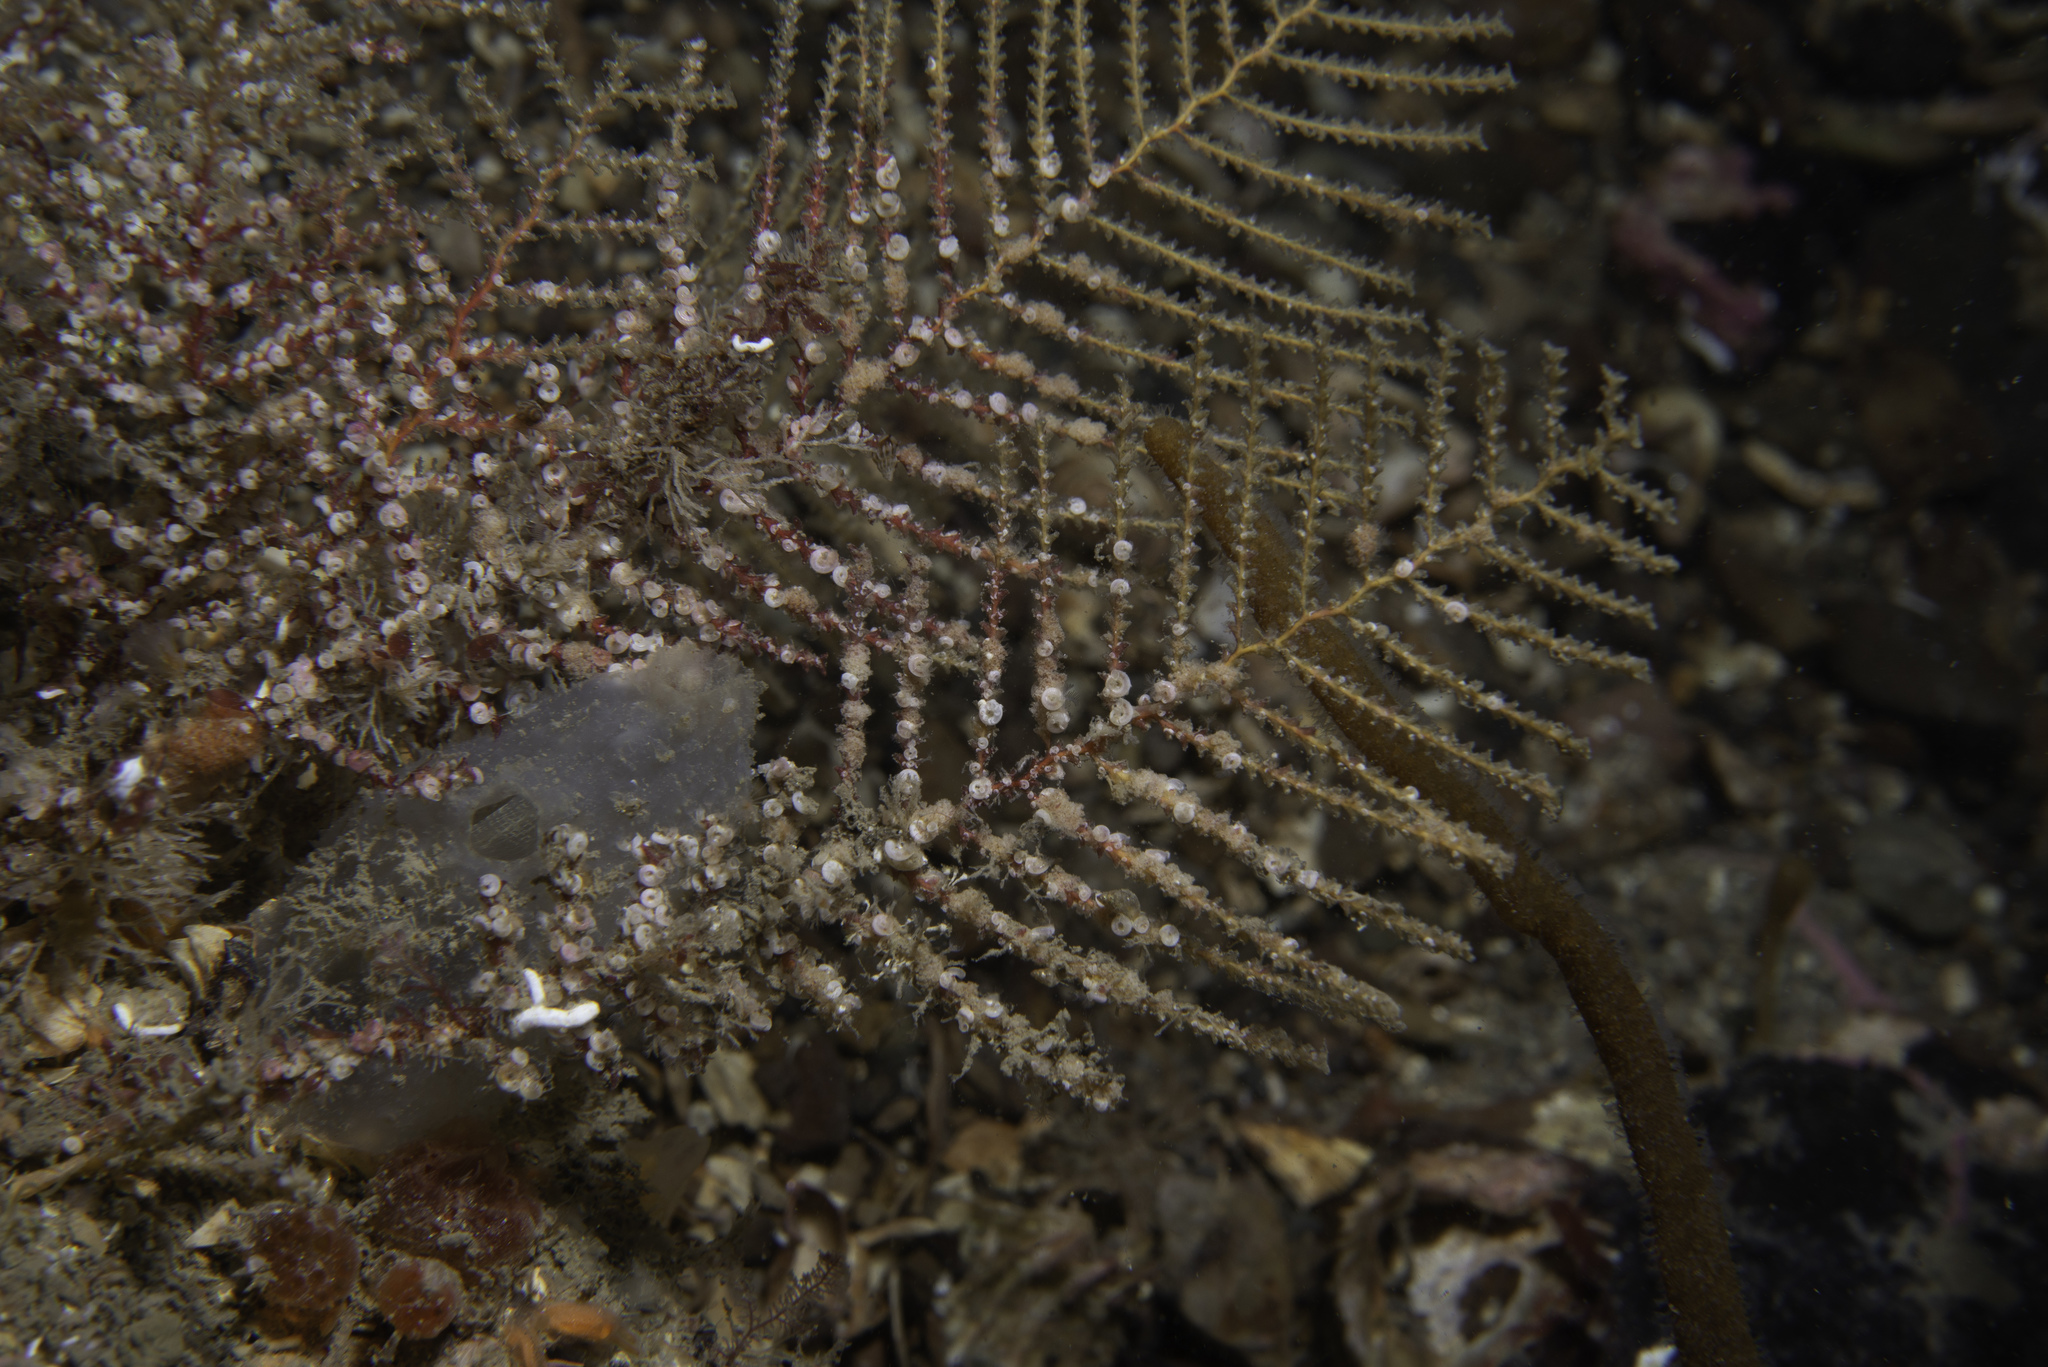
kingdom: Animalia
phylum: Cnidaria
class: Hydrozoa
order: Leptothecata
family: Sertulariidae
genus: Abietinaria
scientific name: Abietinaria abietina
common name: Sea fir
